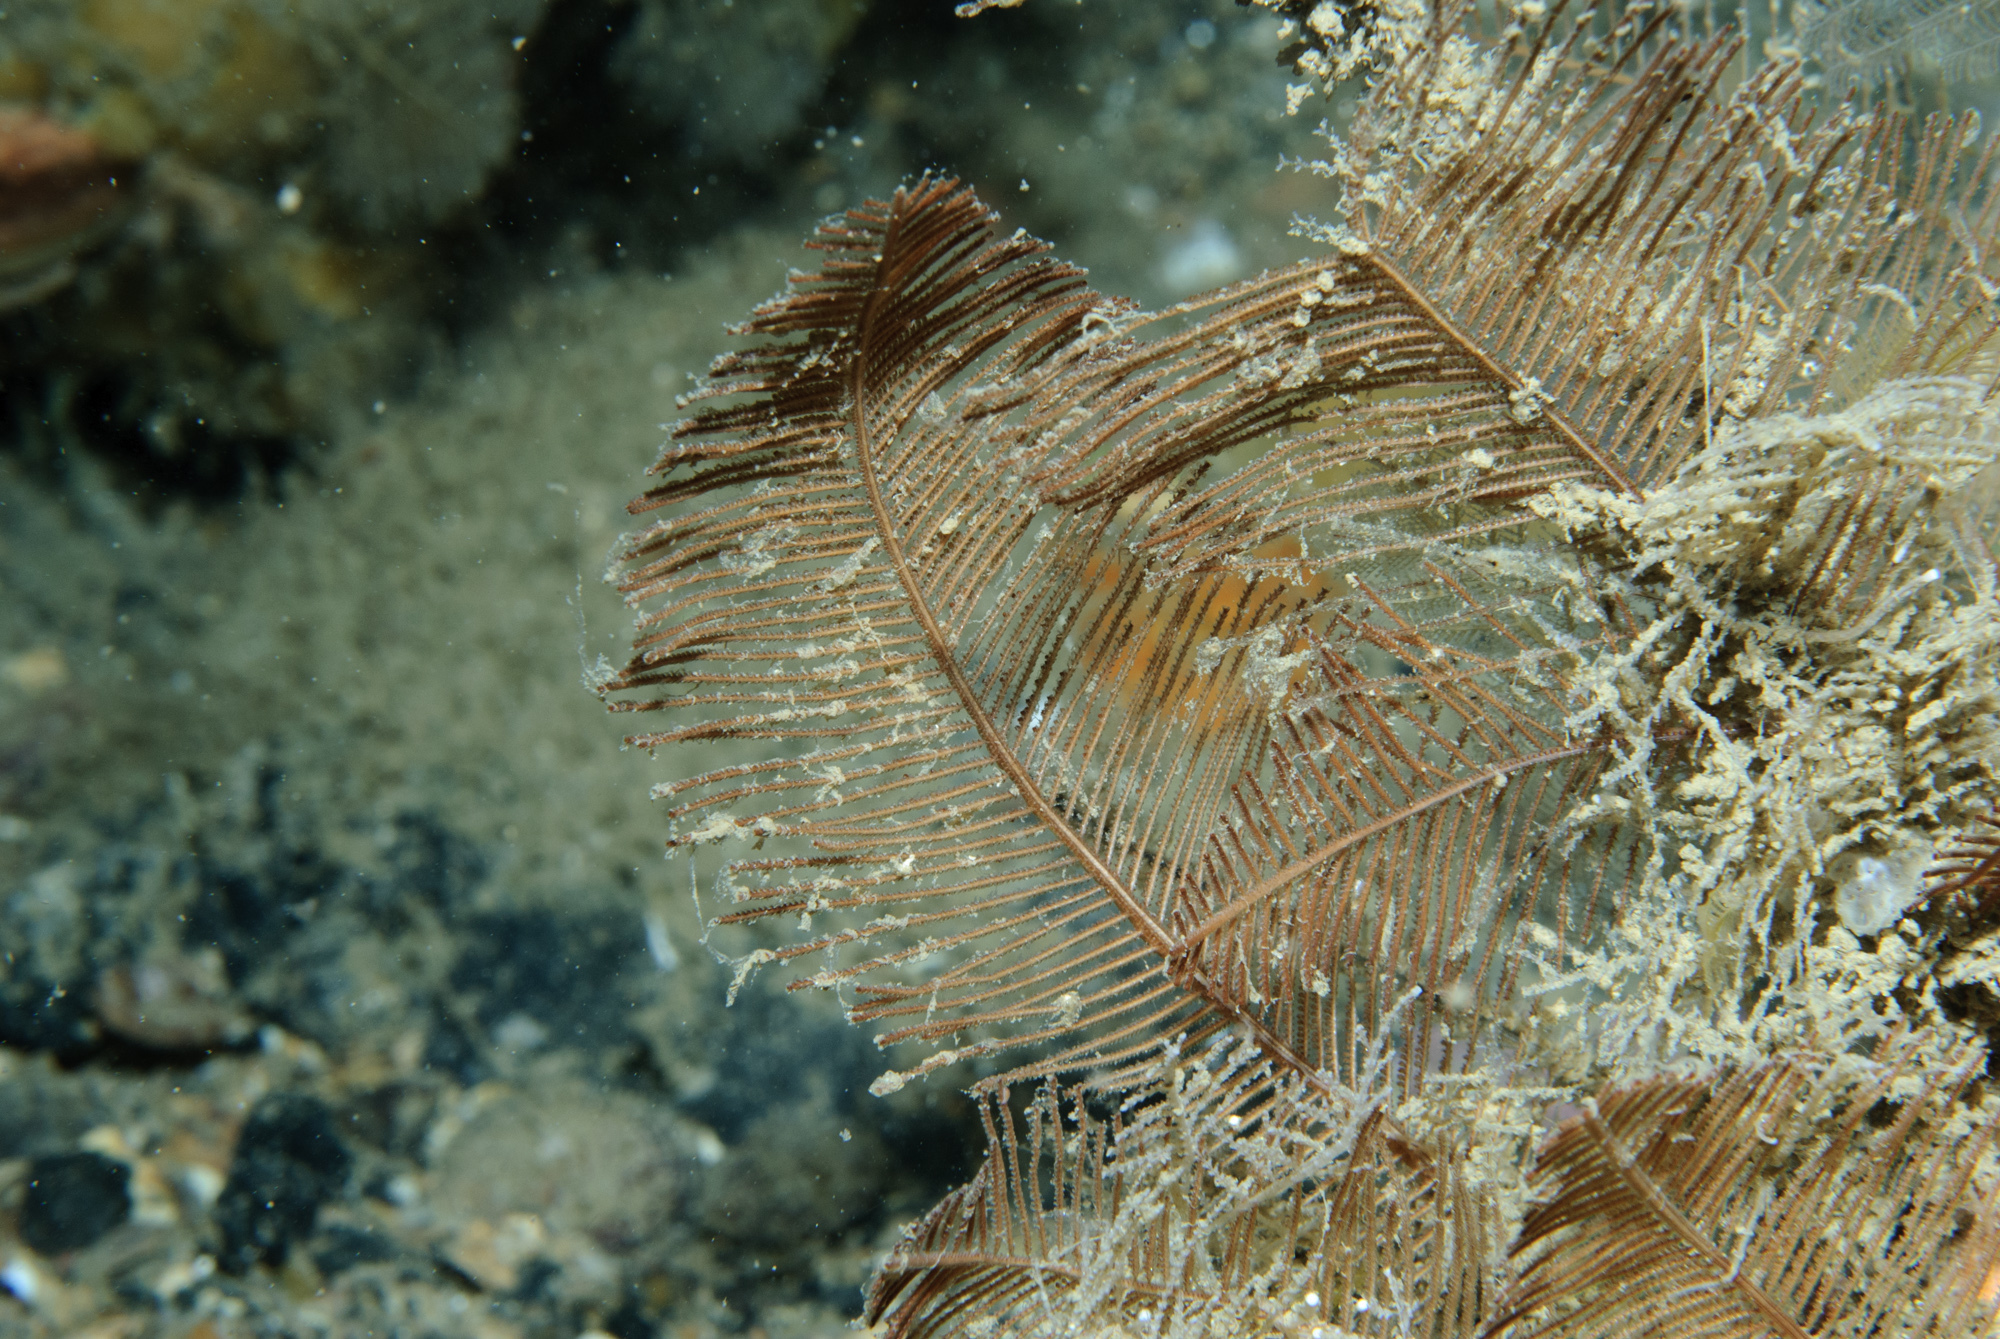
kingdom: Animalia
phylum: Cnidaria
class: Hydrozoa
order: Leptothecata
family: Sertulariidae
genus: Diphasia
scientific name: Diphasia alata
